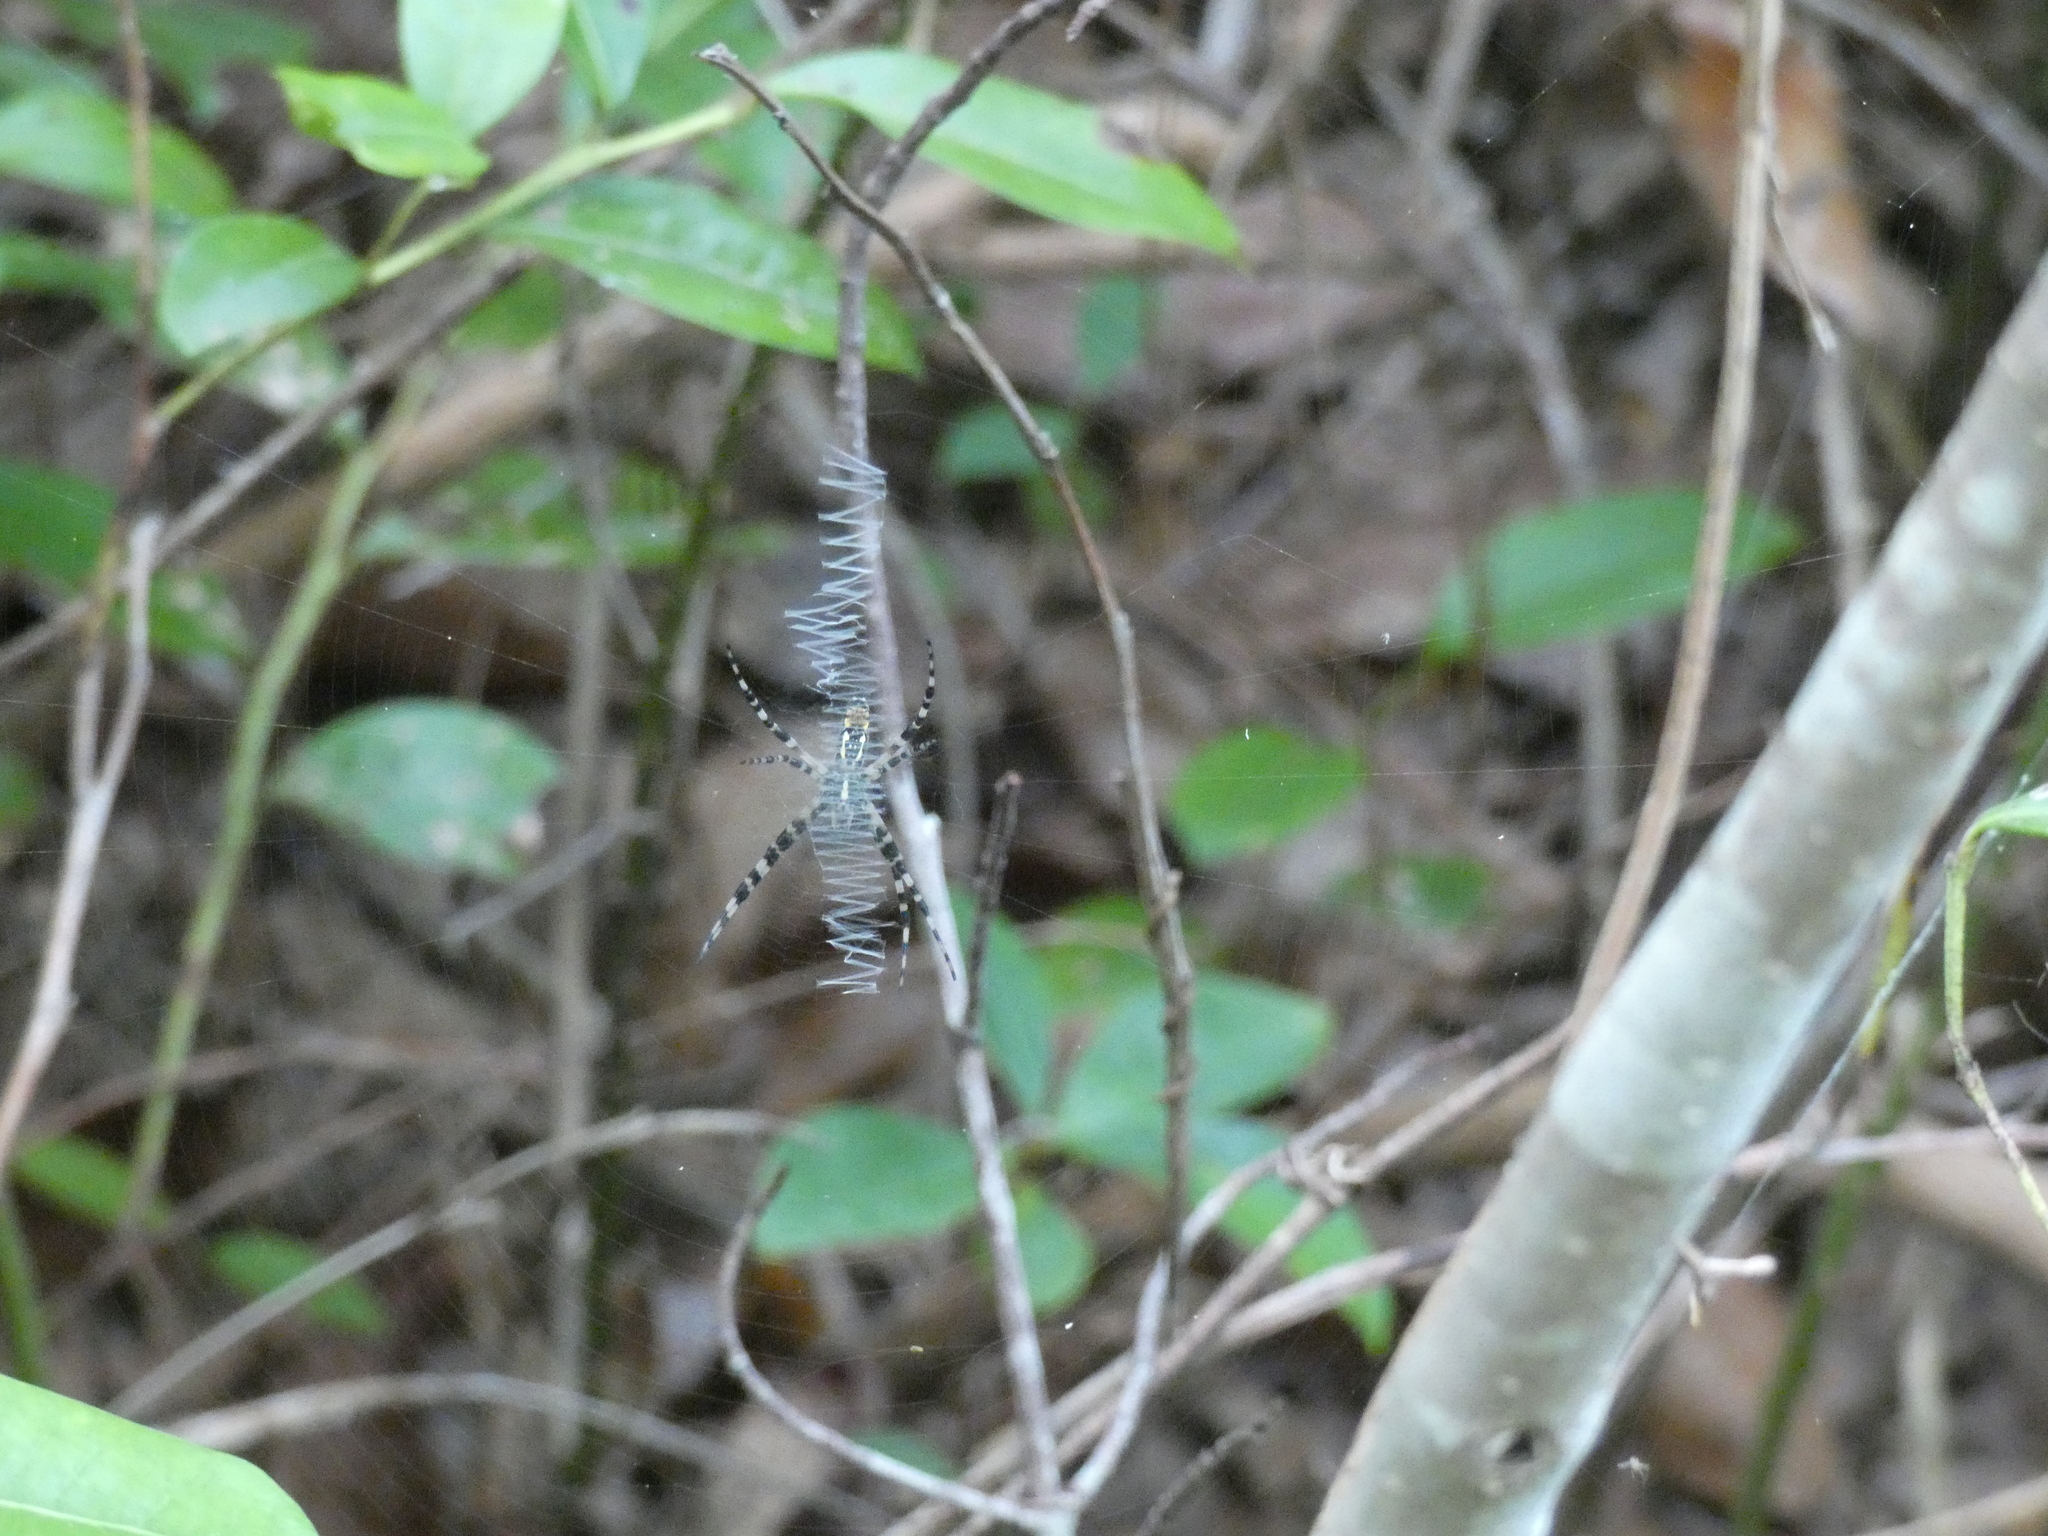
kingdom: Animalia
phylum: Arthropoda
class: Arachnida
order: Araneae
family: Araneidae
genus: Argiope
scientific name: Argiope aurantia
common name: Orb weavers
